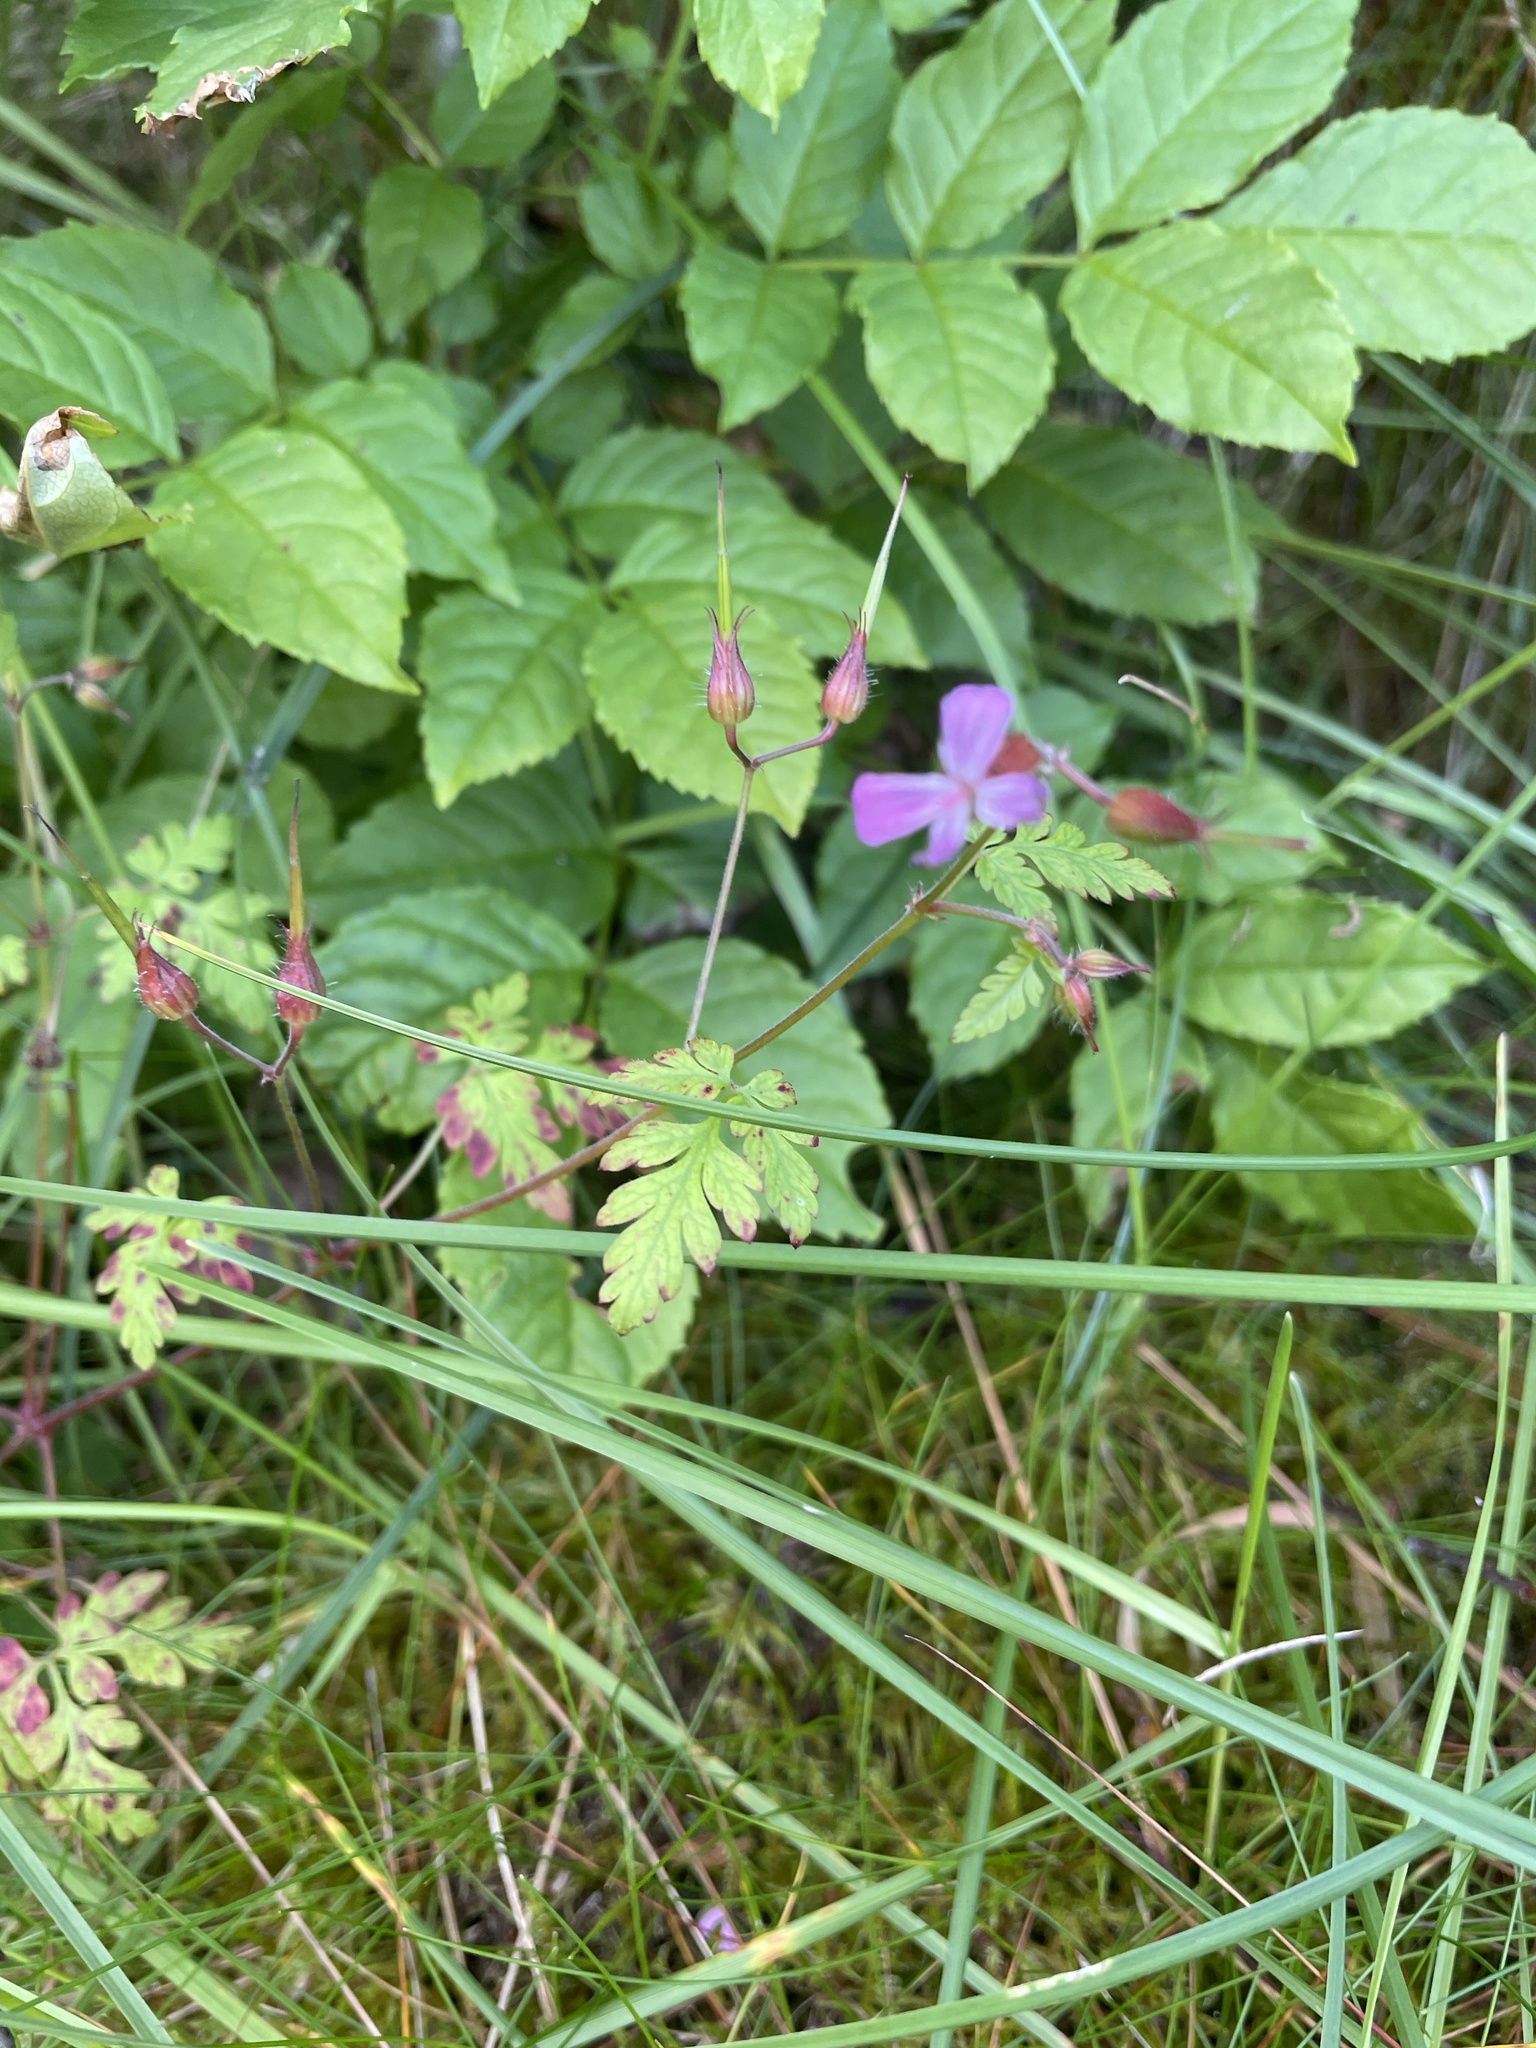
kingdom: Plantae
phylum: Tracheophyta
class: Magnoliopsida
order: Geraniales
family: Geraniaceae
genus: Geranium
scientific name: Geranium robertianum
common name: Herb-robert
